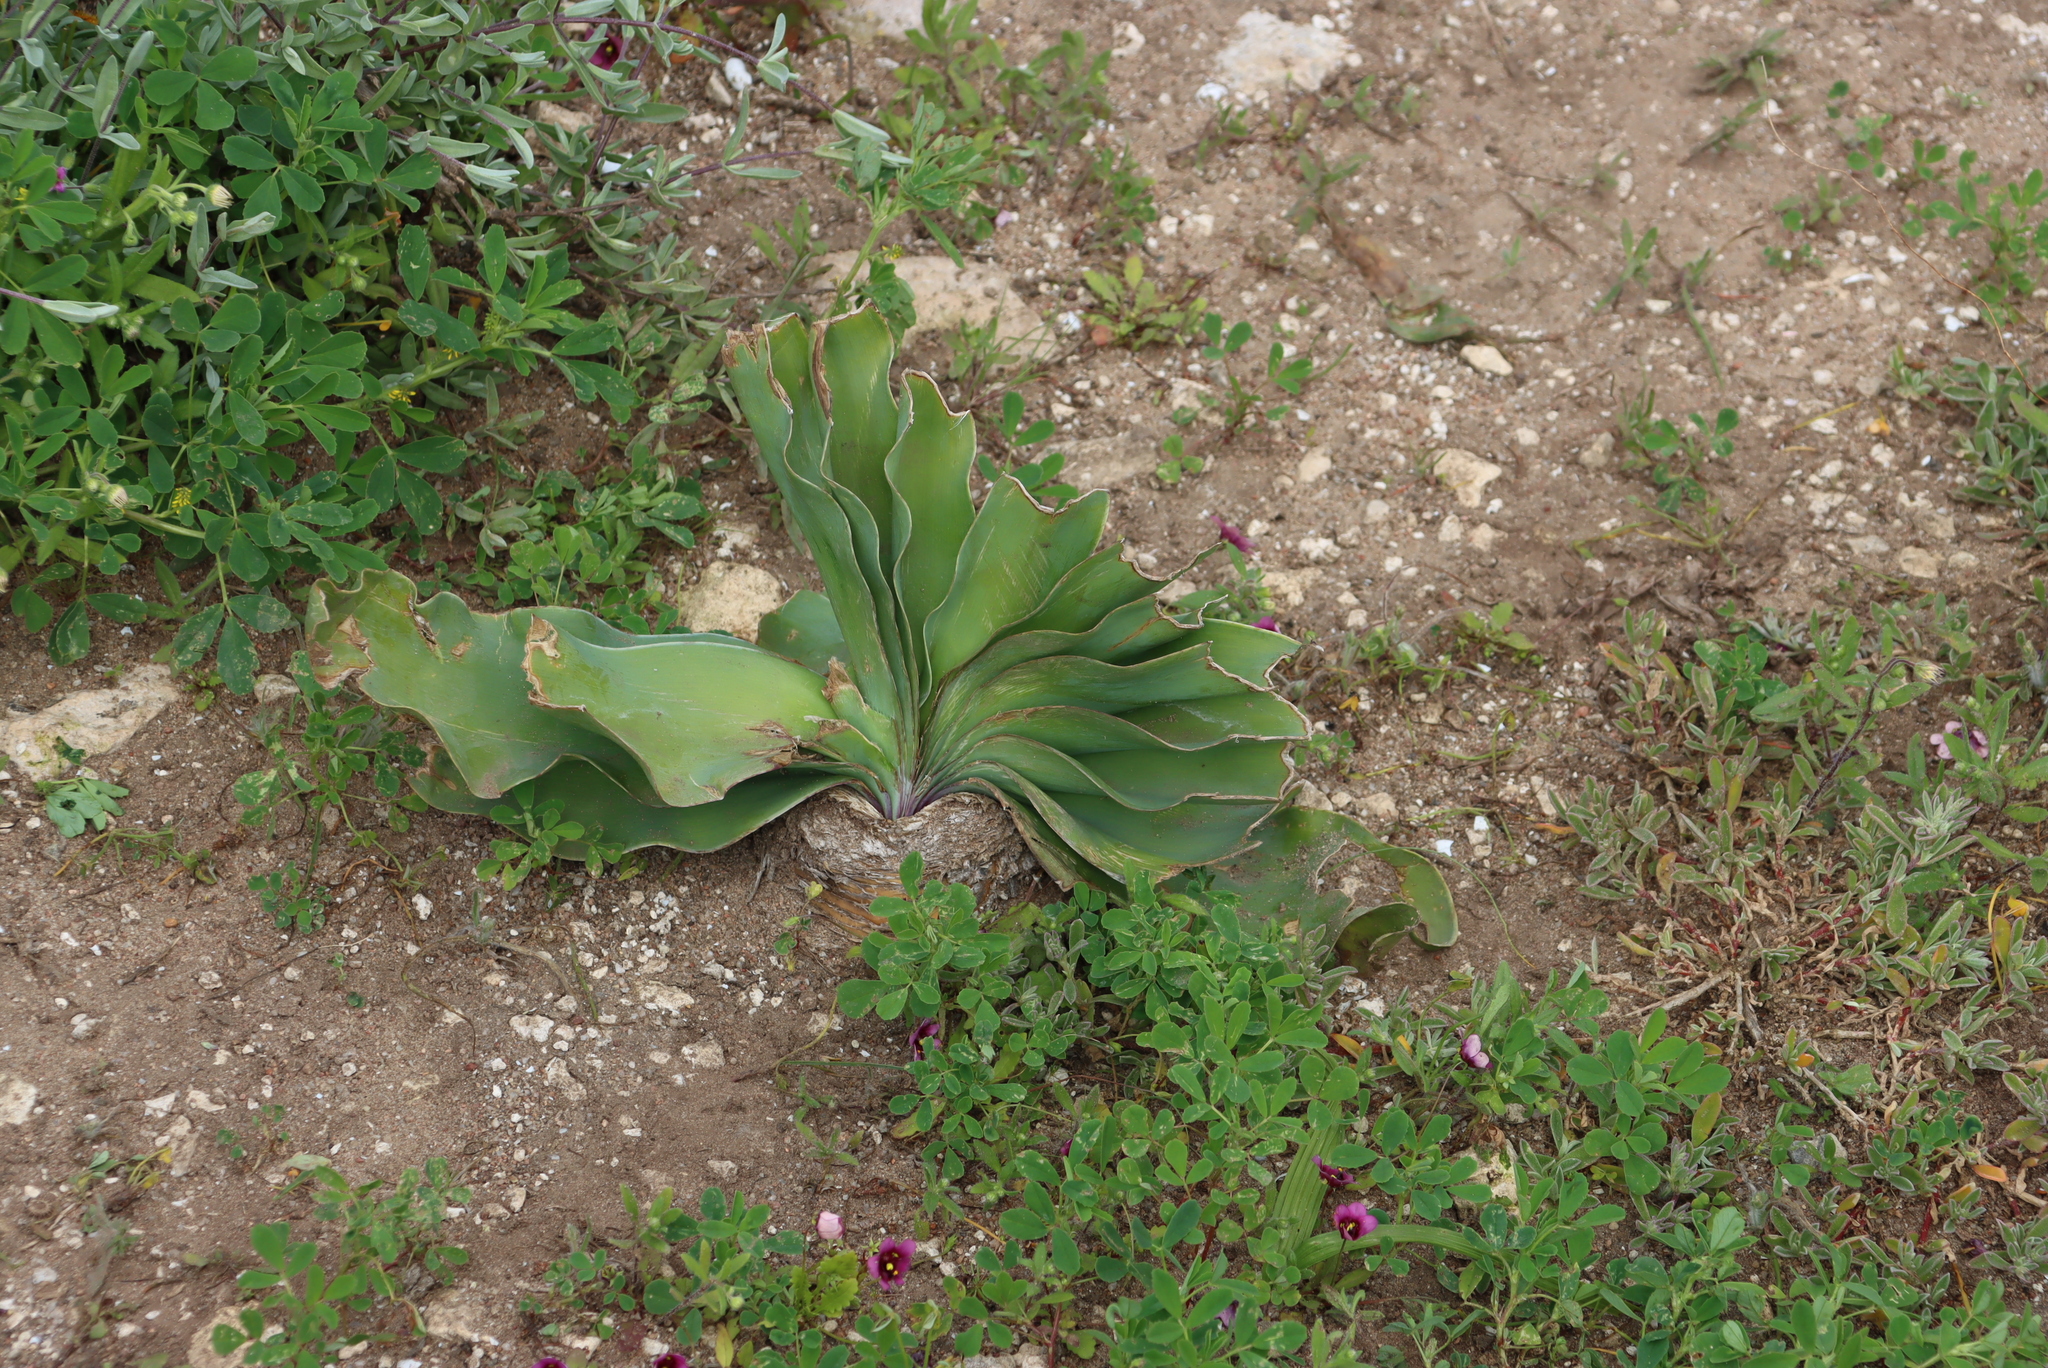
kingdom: Plantae
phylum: Tracheophyta
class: Liliopsida
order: Asparagales
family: Amaryllidaceae
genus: Boophone
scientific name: Boophone haemanthoides
